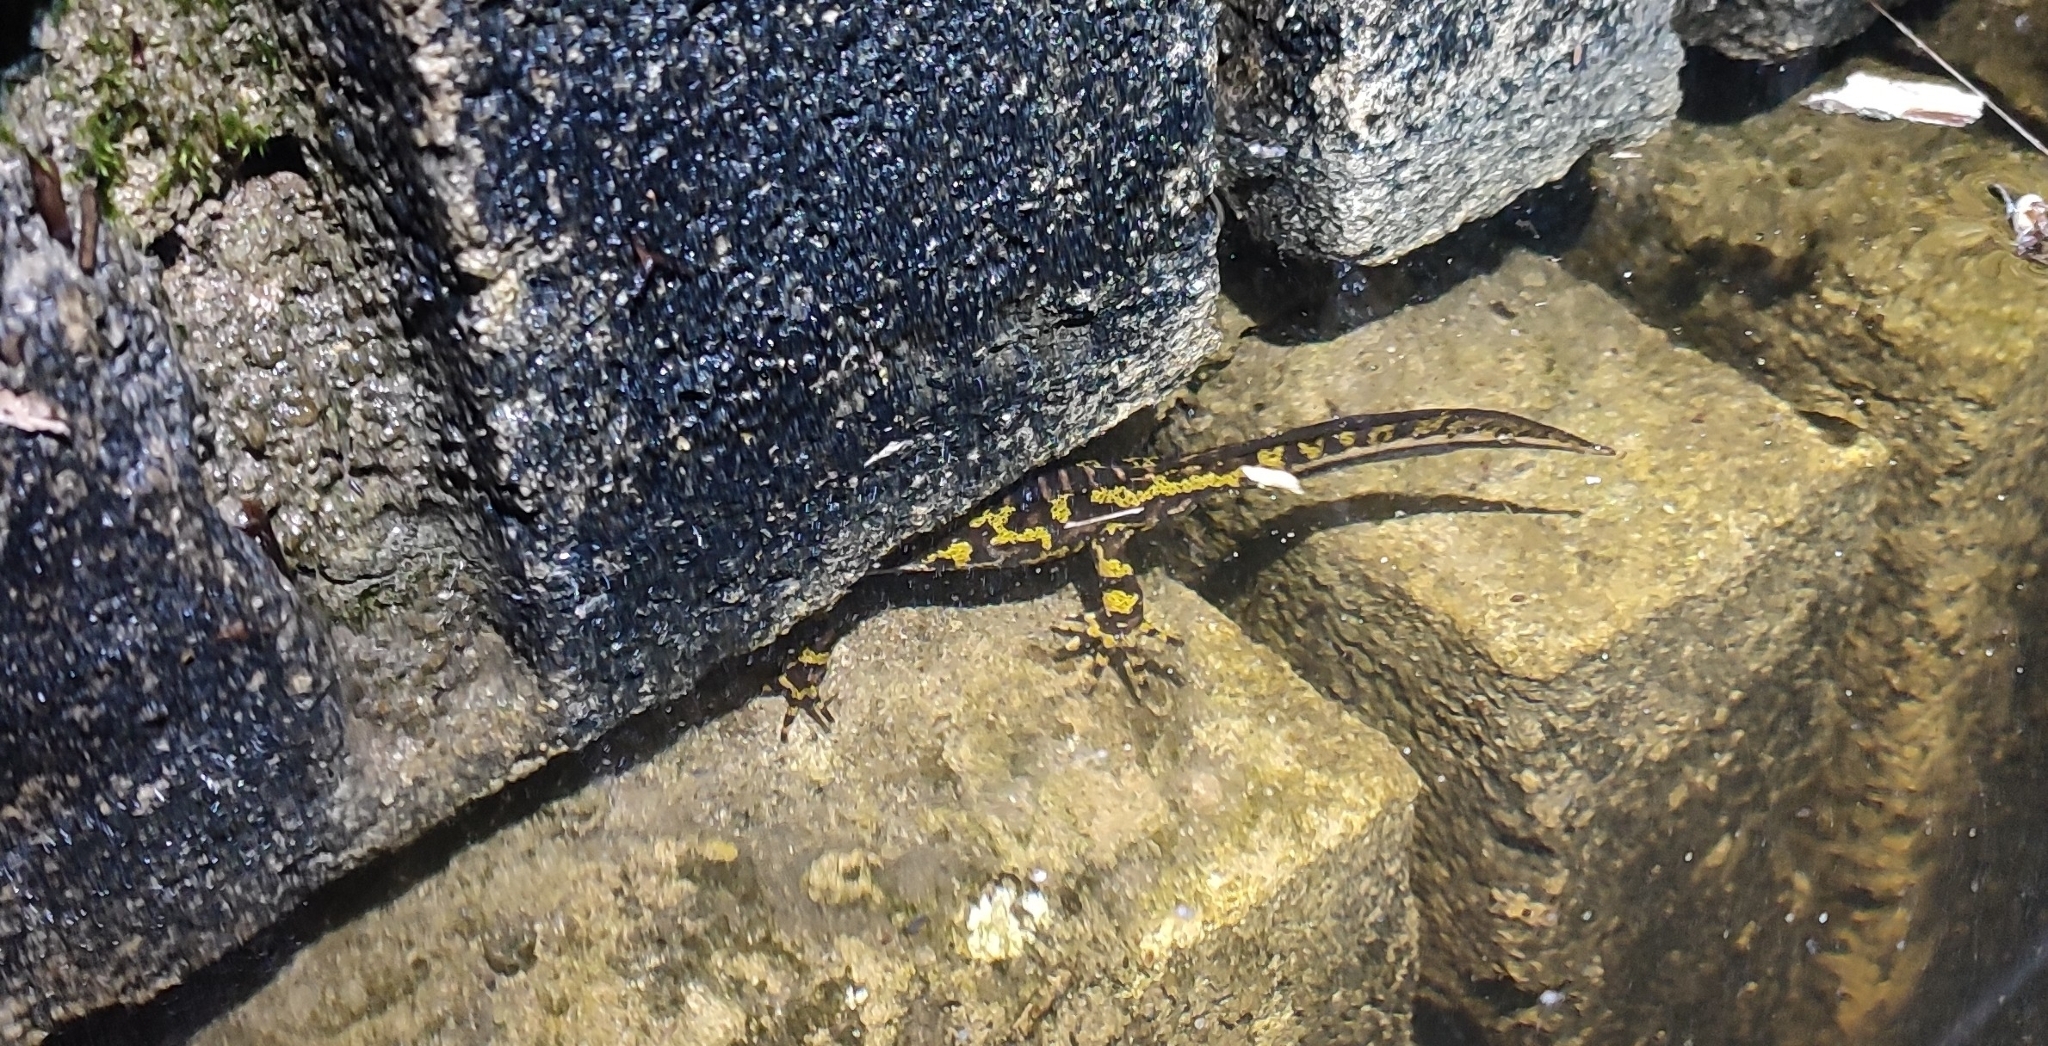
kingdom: Animalia
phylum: Chordata
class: Amphibia
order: Caudata
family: Salamandridae
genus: Triturus
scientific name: Triturus marmoratus
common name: Marbled newt
